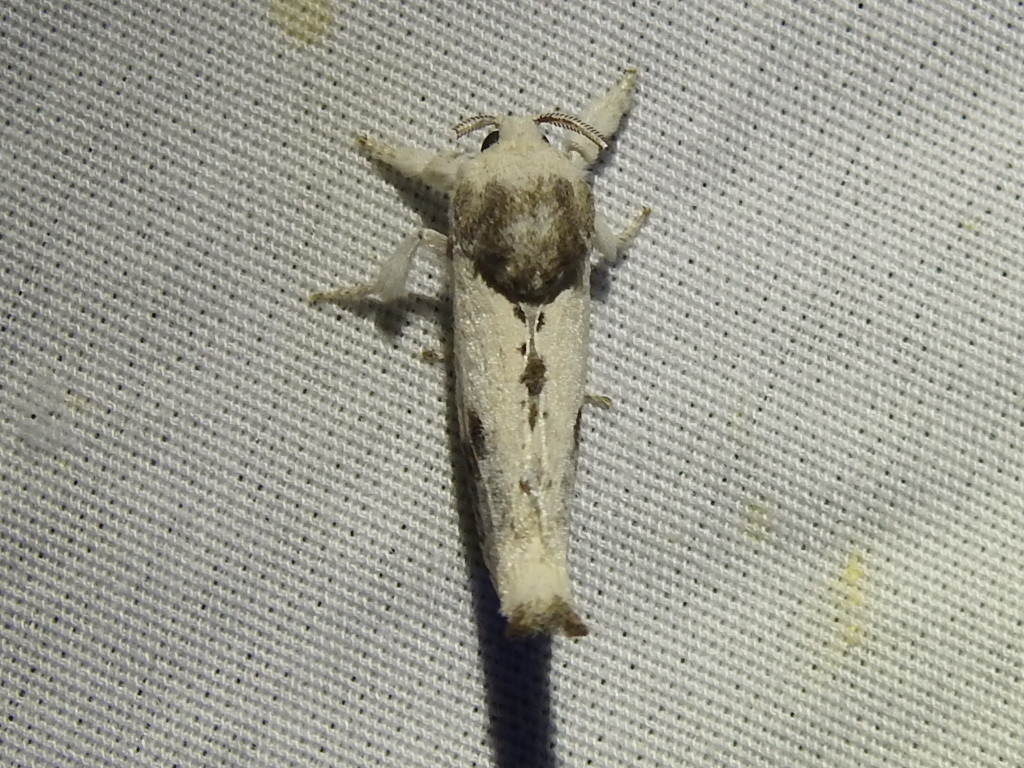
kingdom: Animalia
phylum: Arthropoda
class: Insecta
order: Lepidoptera
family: Cossidae
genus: Givira
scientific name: Givira theodori
